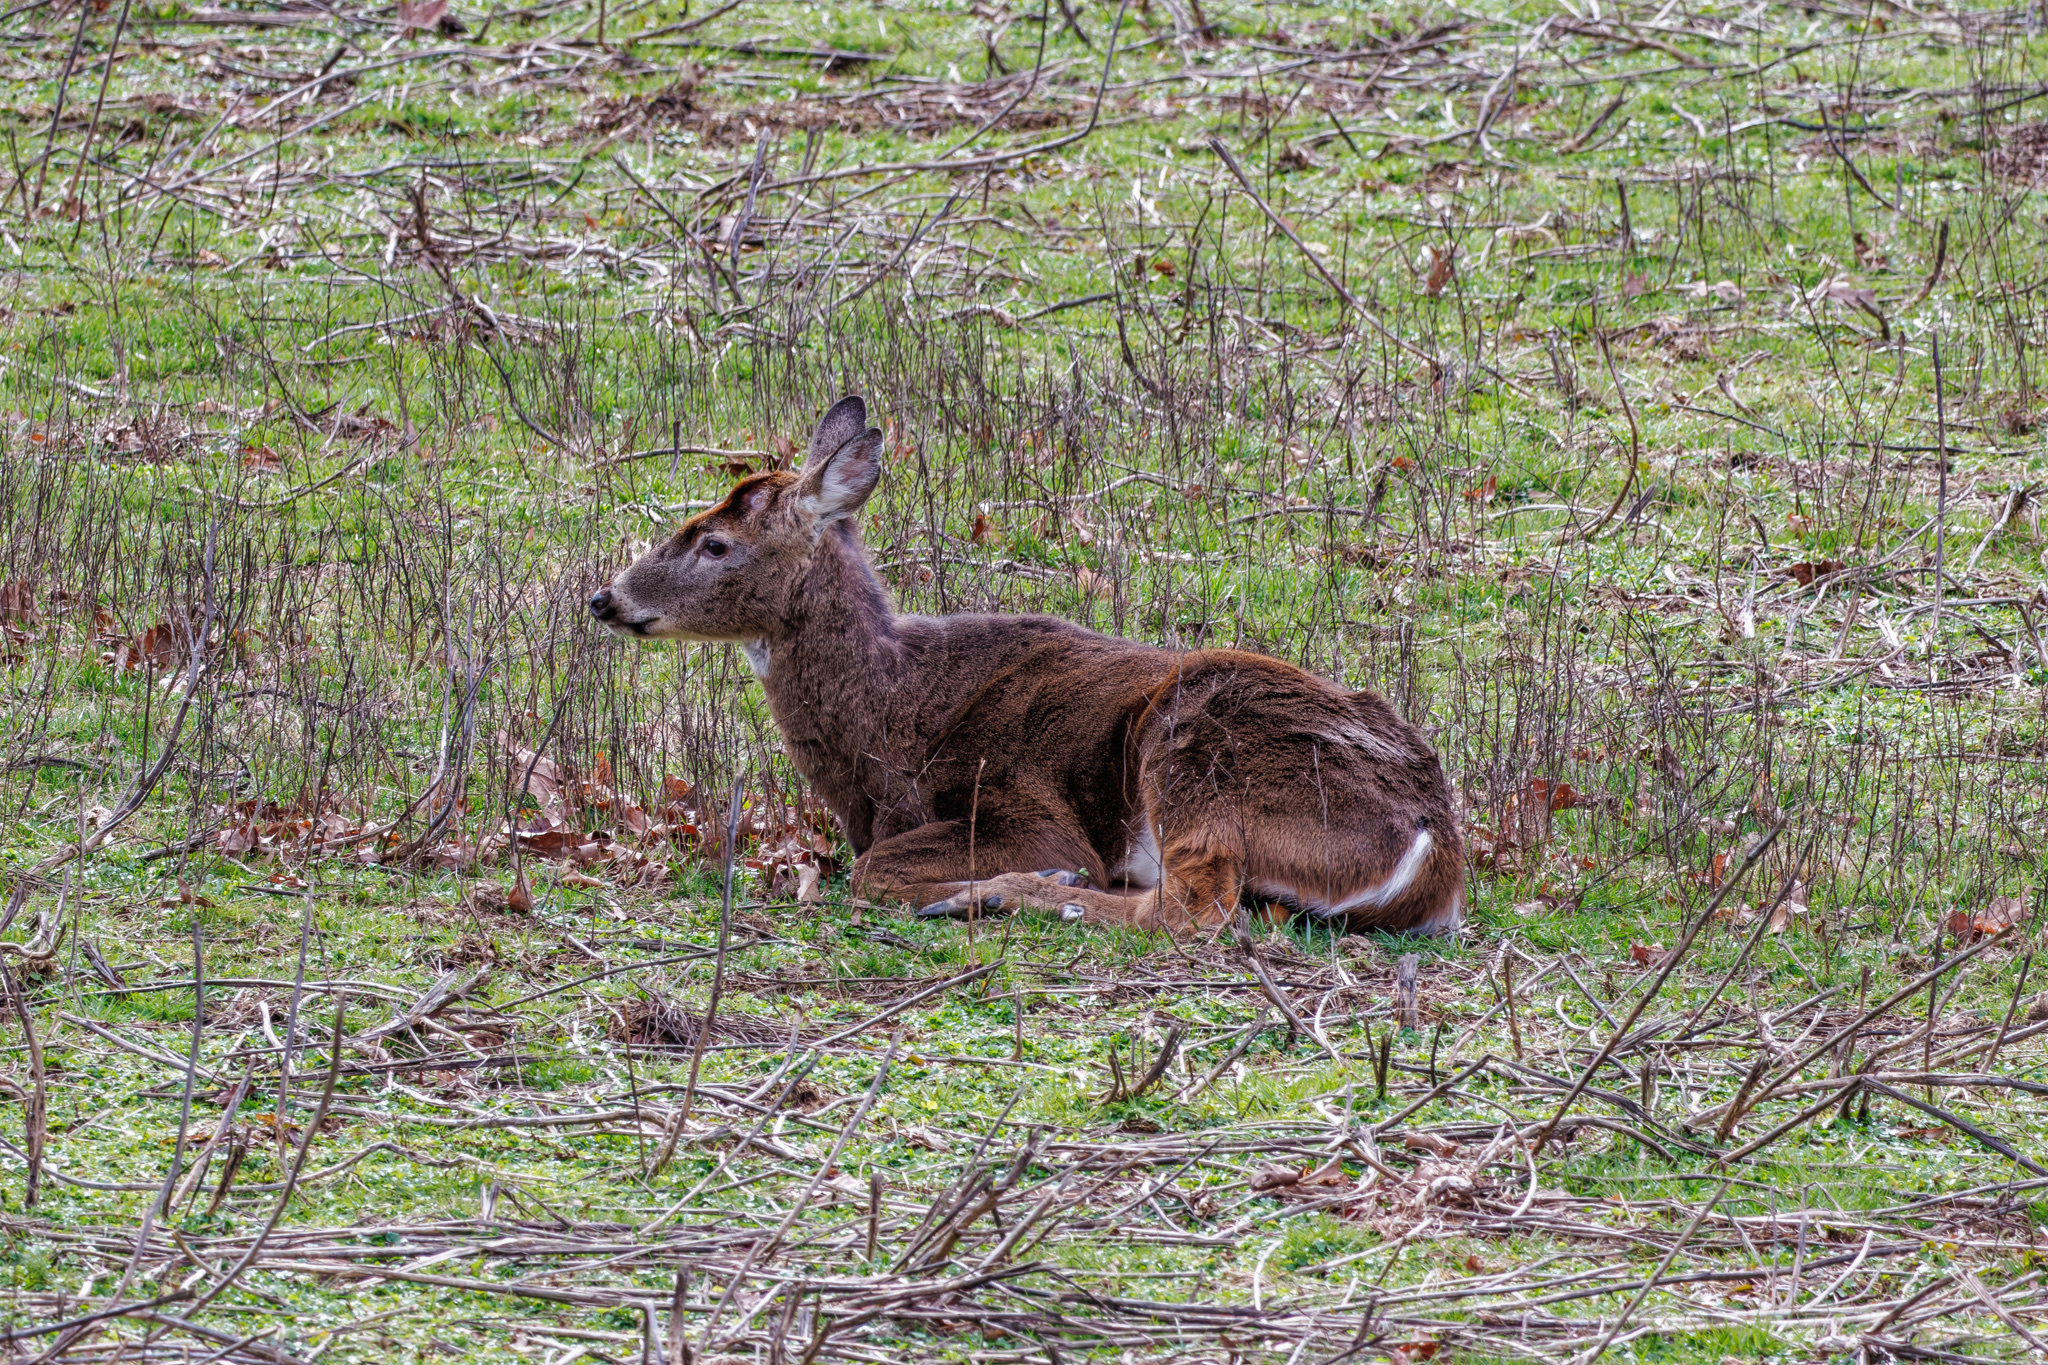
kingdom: Animalia
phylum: Chordata
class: Mammalia
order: Artiodactyla
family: Cervidae
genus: Odocoileus
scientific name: Odocoileus virginianus
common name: White-tailed deer
